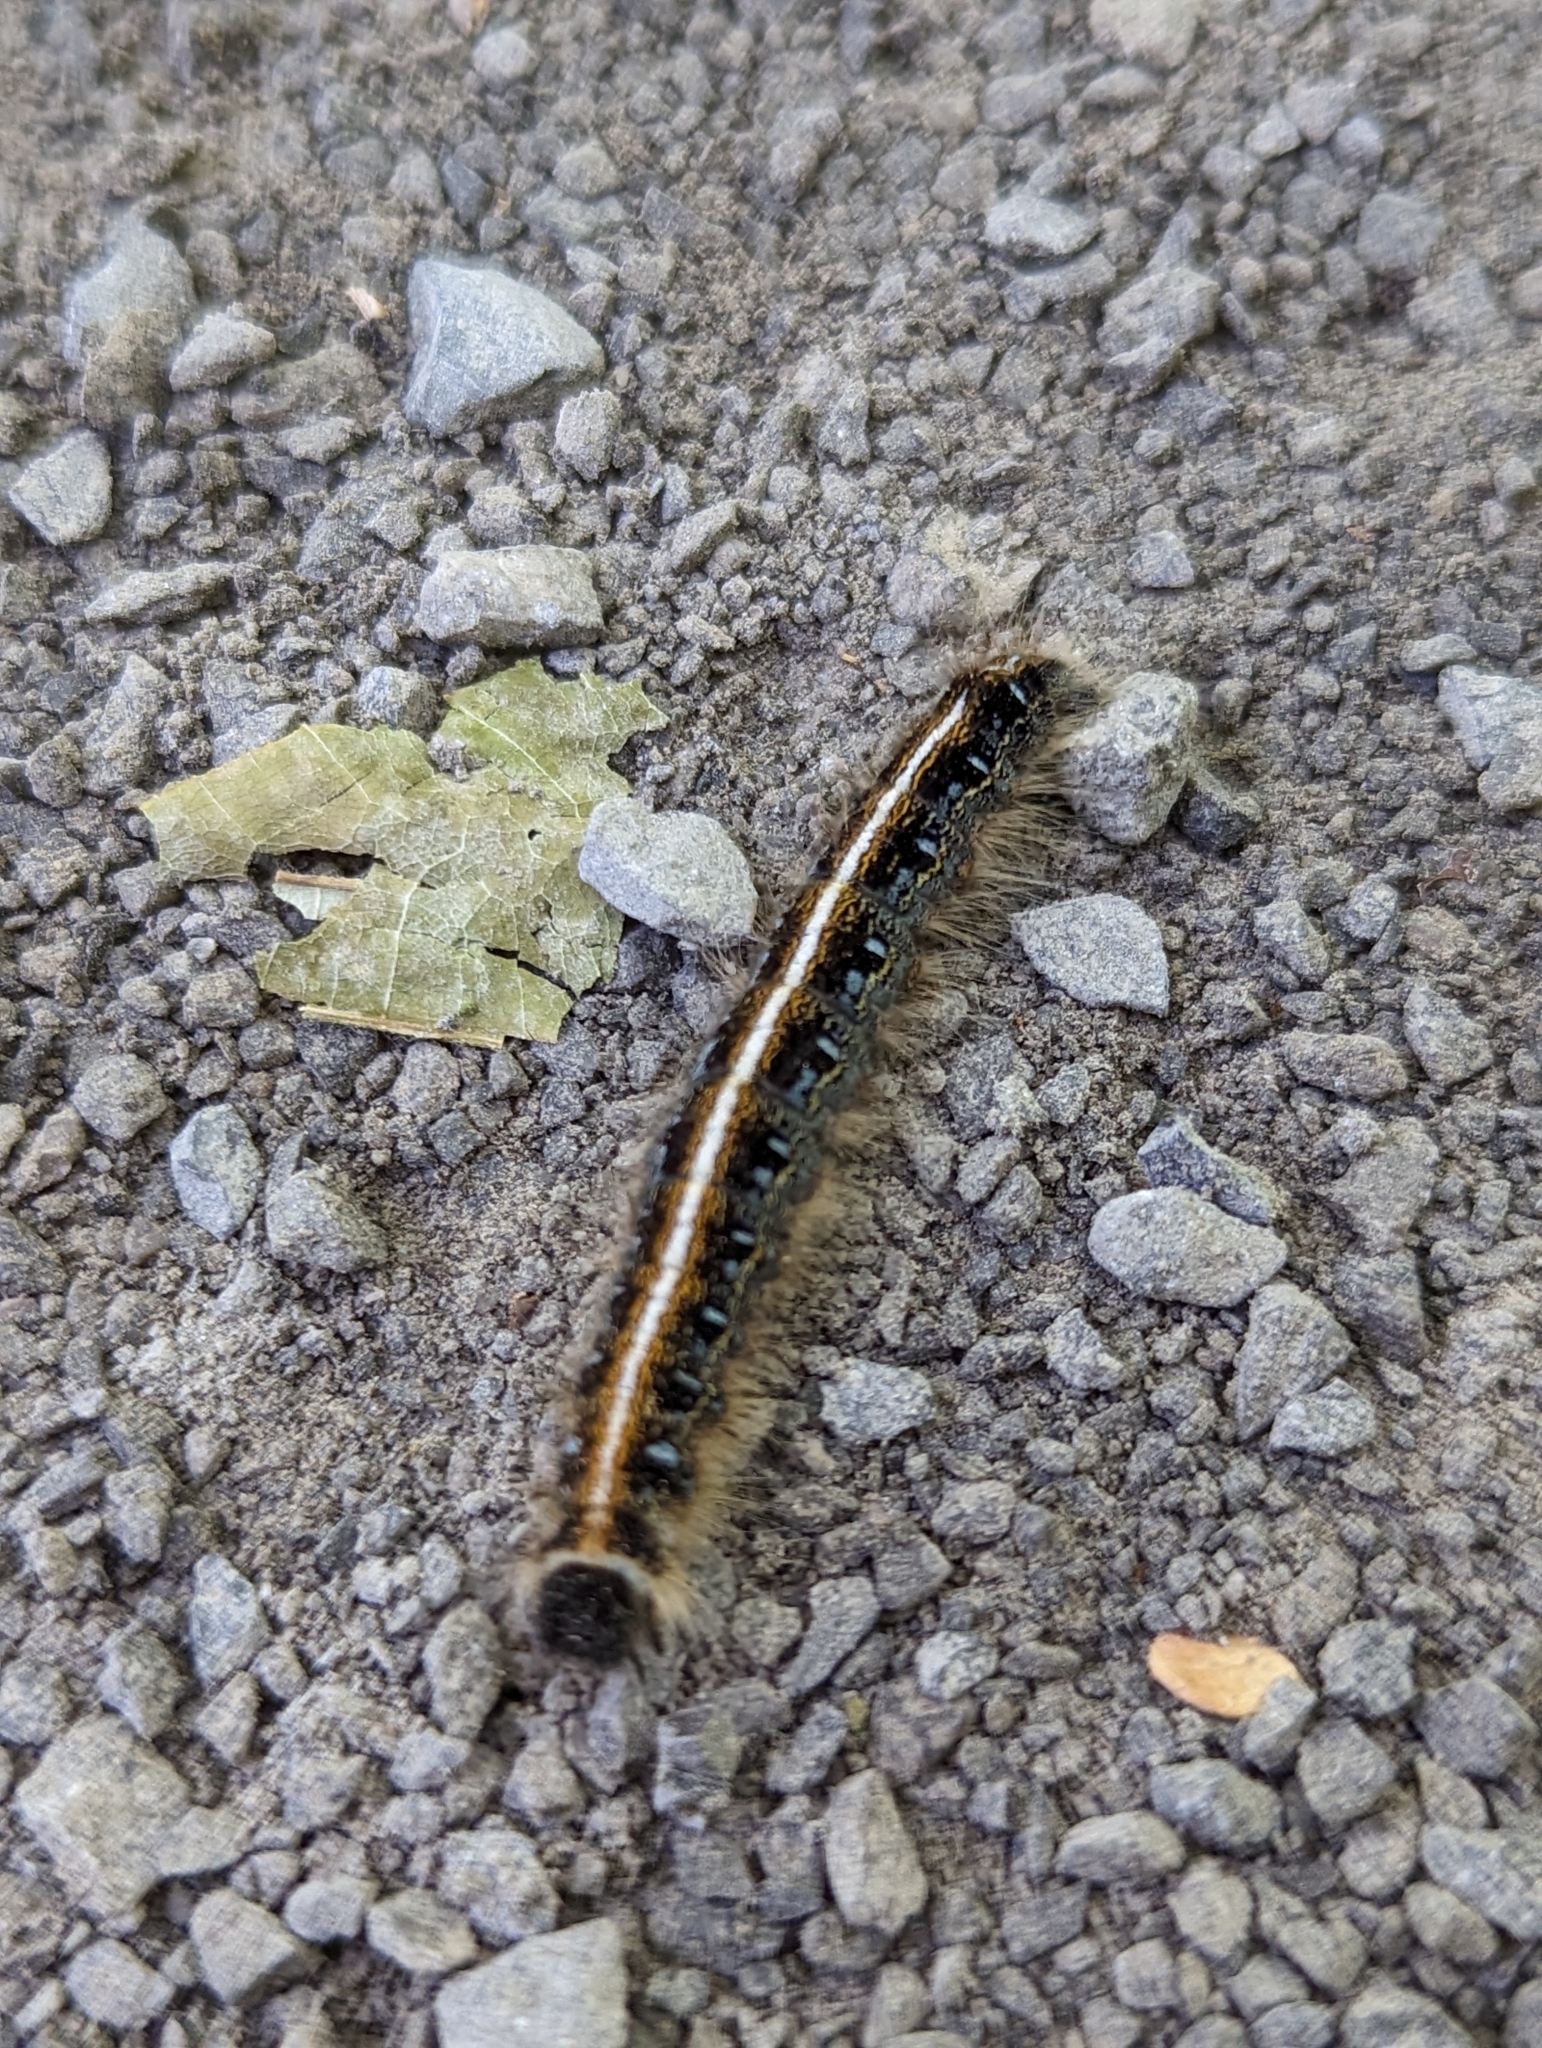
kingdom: Animalia
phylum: Arthropoda
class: Insecta
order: Lepidoptera
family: Lasiocampidae
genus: Malacosoma
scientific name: Malacosoma americana
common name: Eastern tent caterpillar moth
